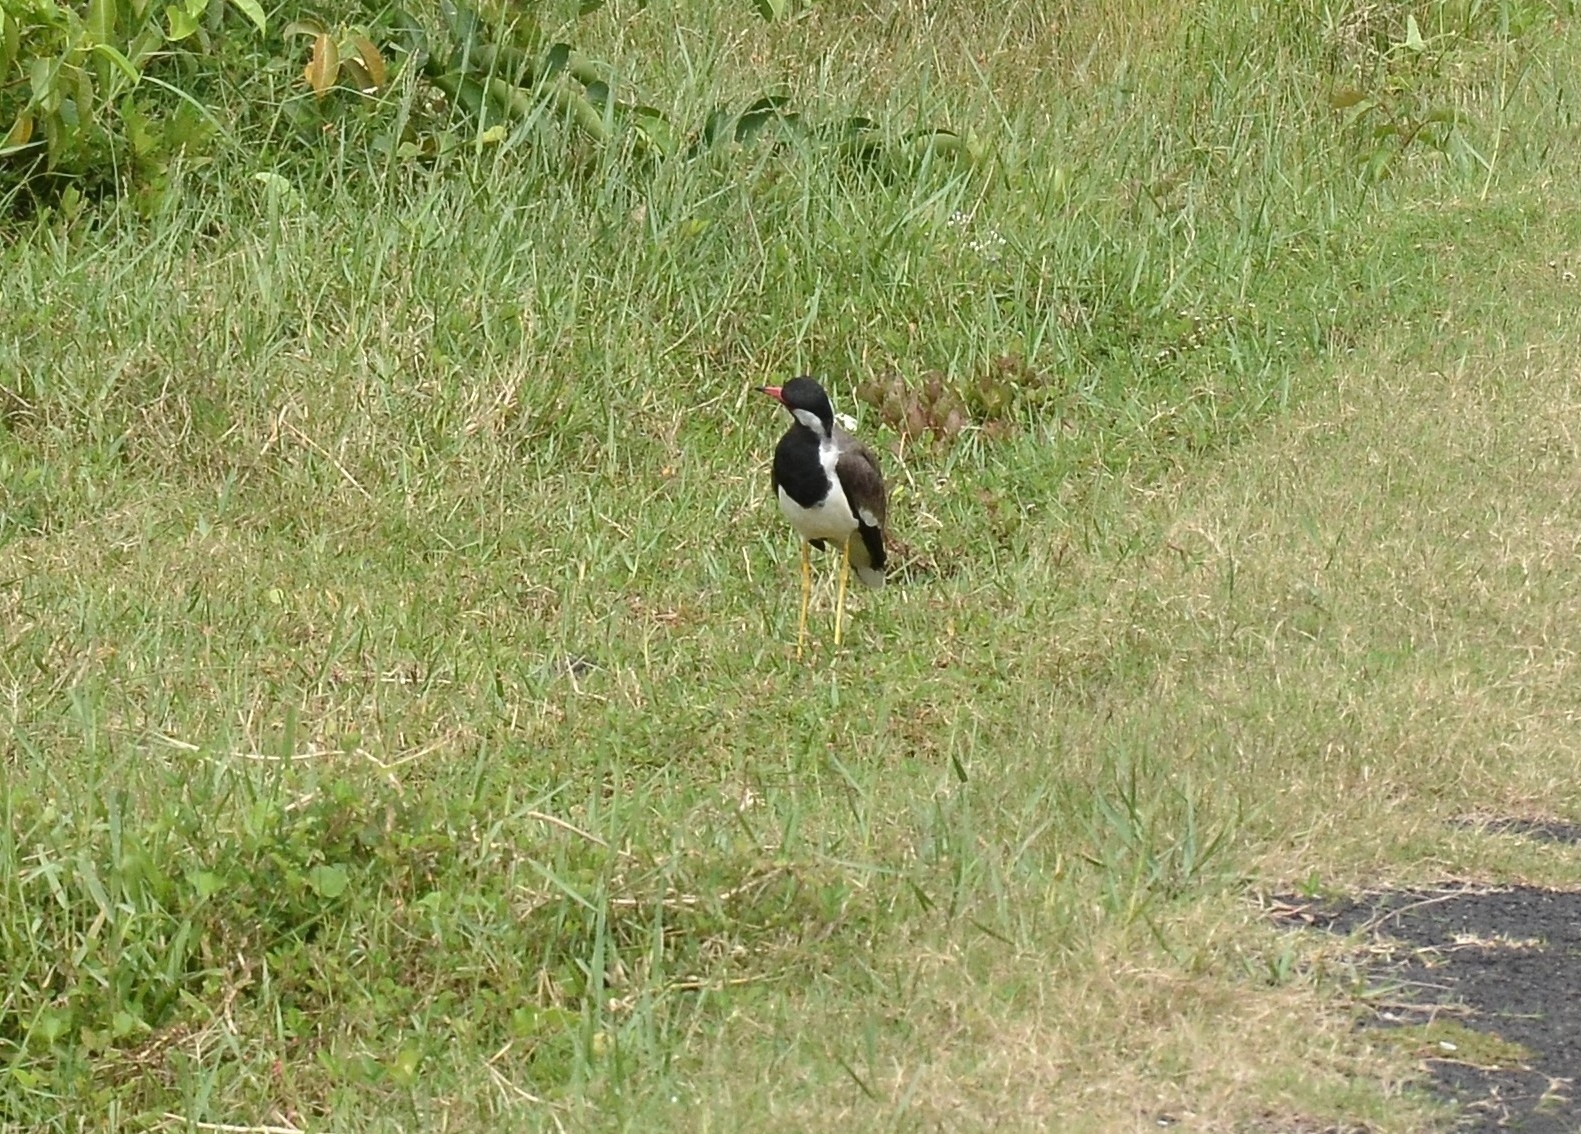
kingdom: Animalia
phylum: Chordata
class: Aves
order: Charadriiformes
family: Charadriidae
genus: Vanellus
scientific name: Vanellus indicus
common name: Red-wattled lapwing
